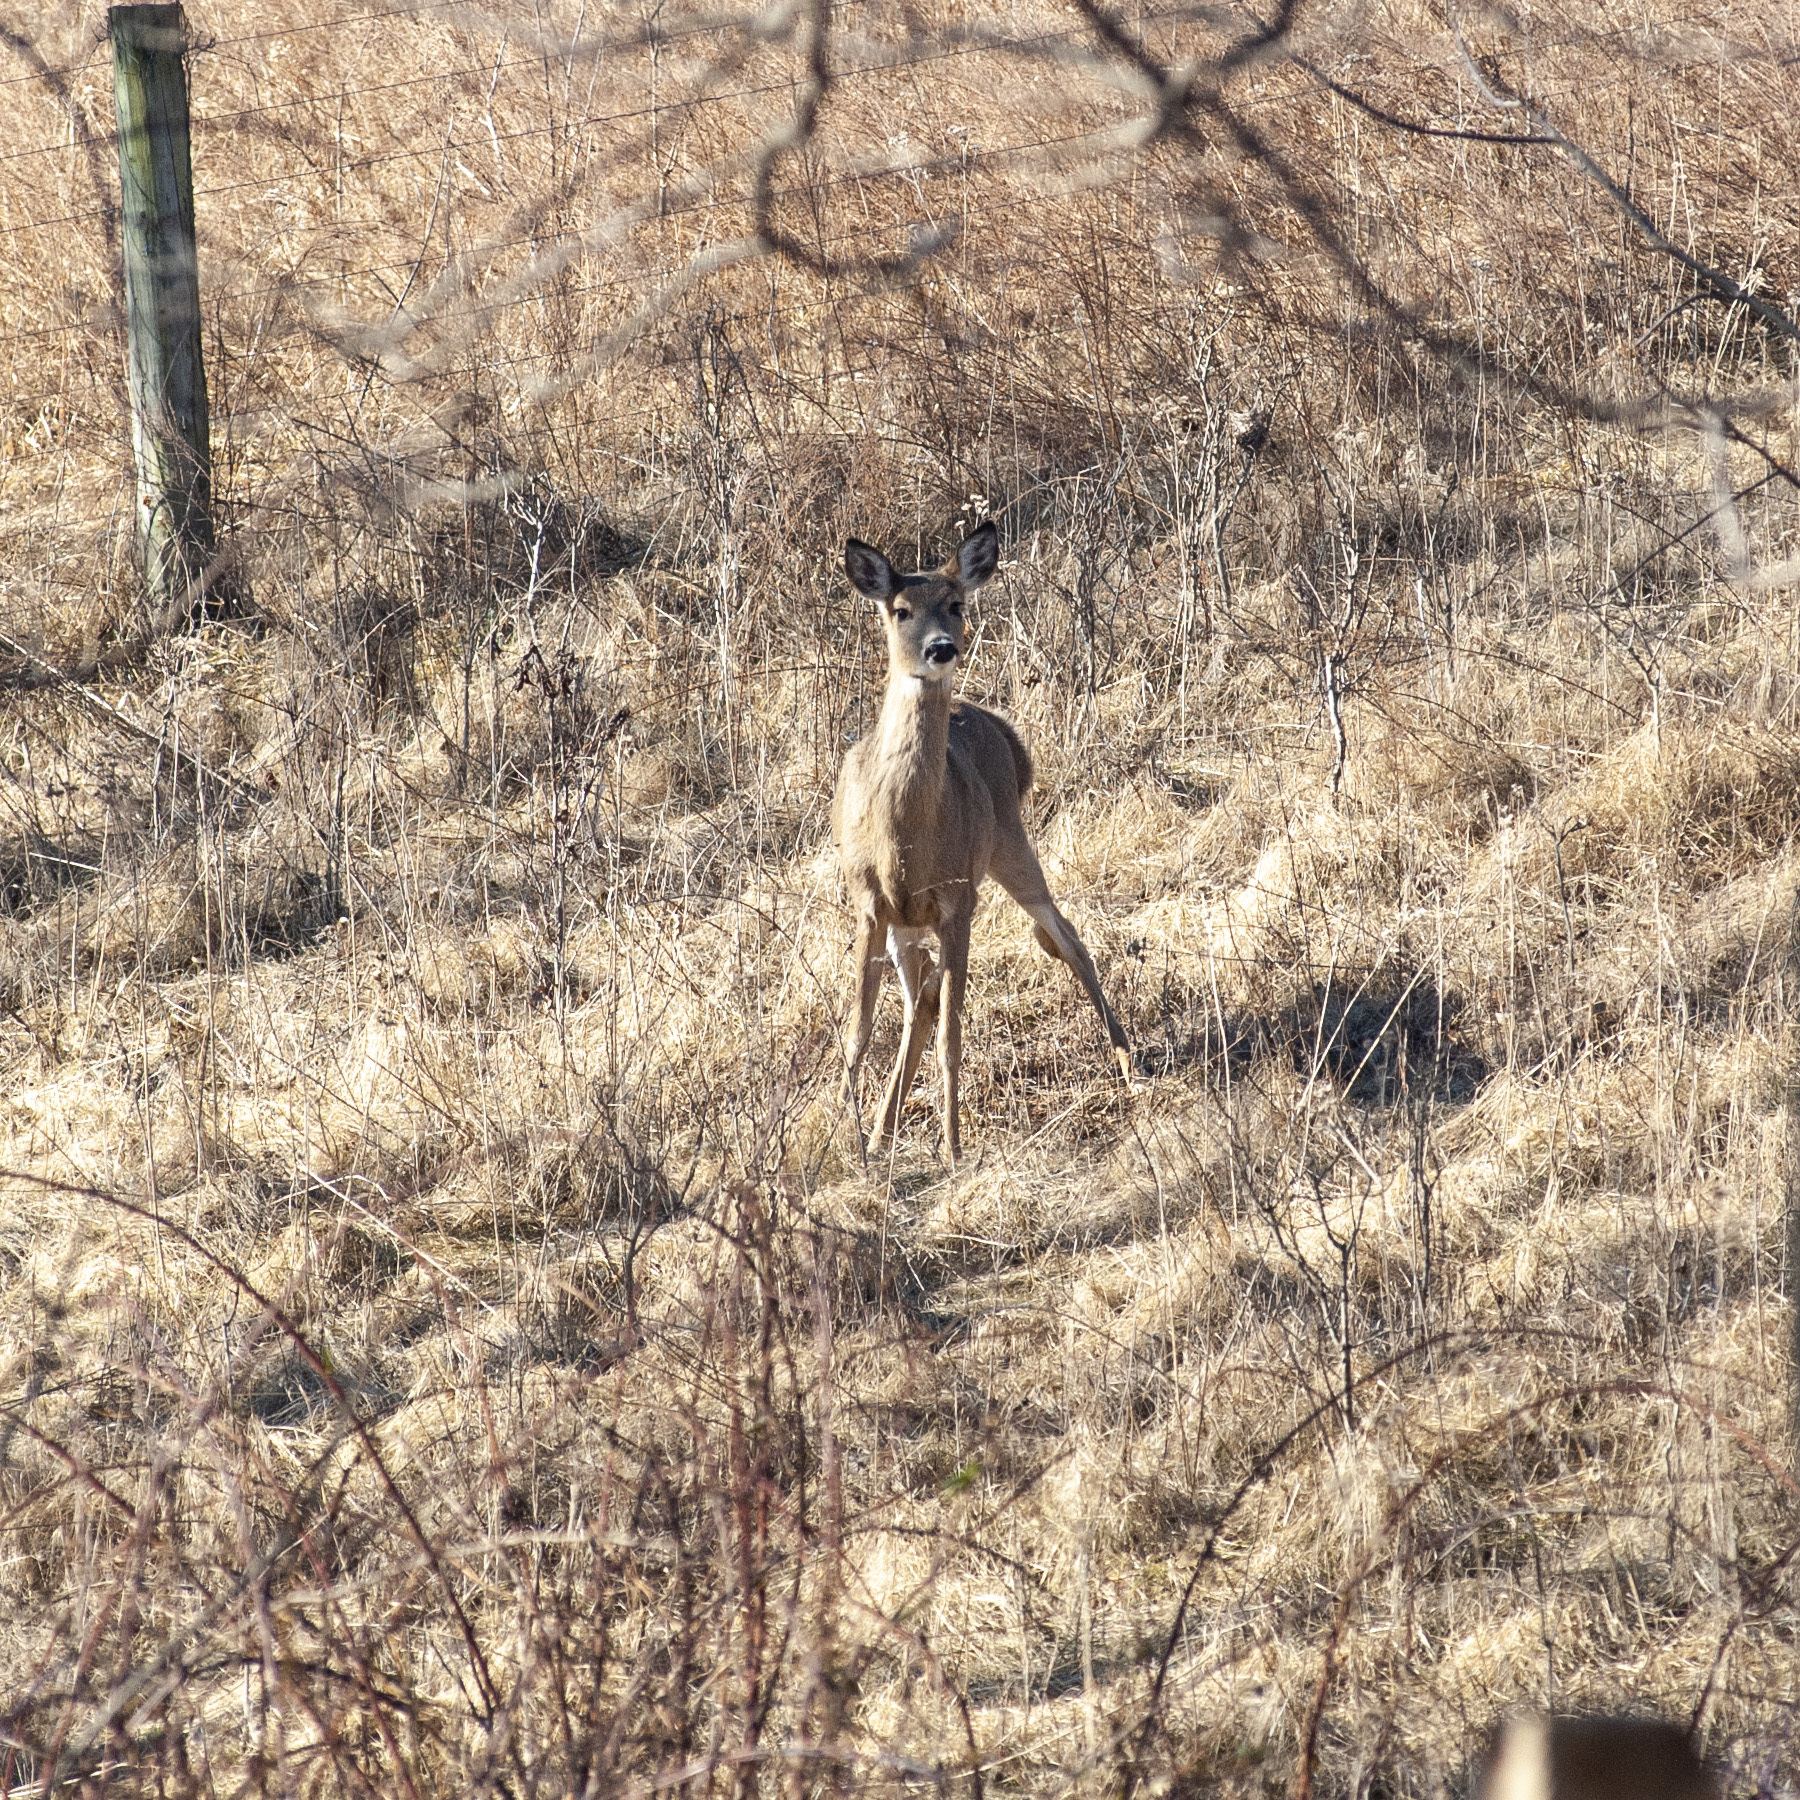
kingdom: Animalia
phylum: Chordata
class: Mammalia
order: Artiodactyla
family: Cervidae
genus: Odocoileus
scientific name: Odocoileus virginianus
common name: White-tailed deer
